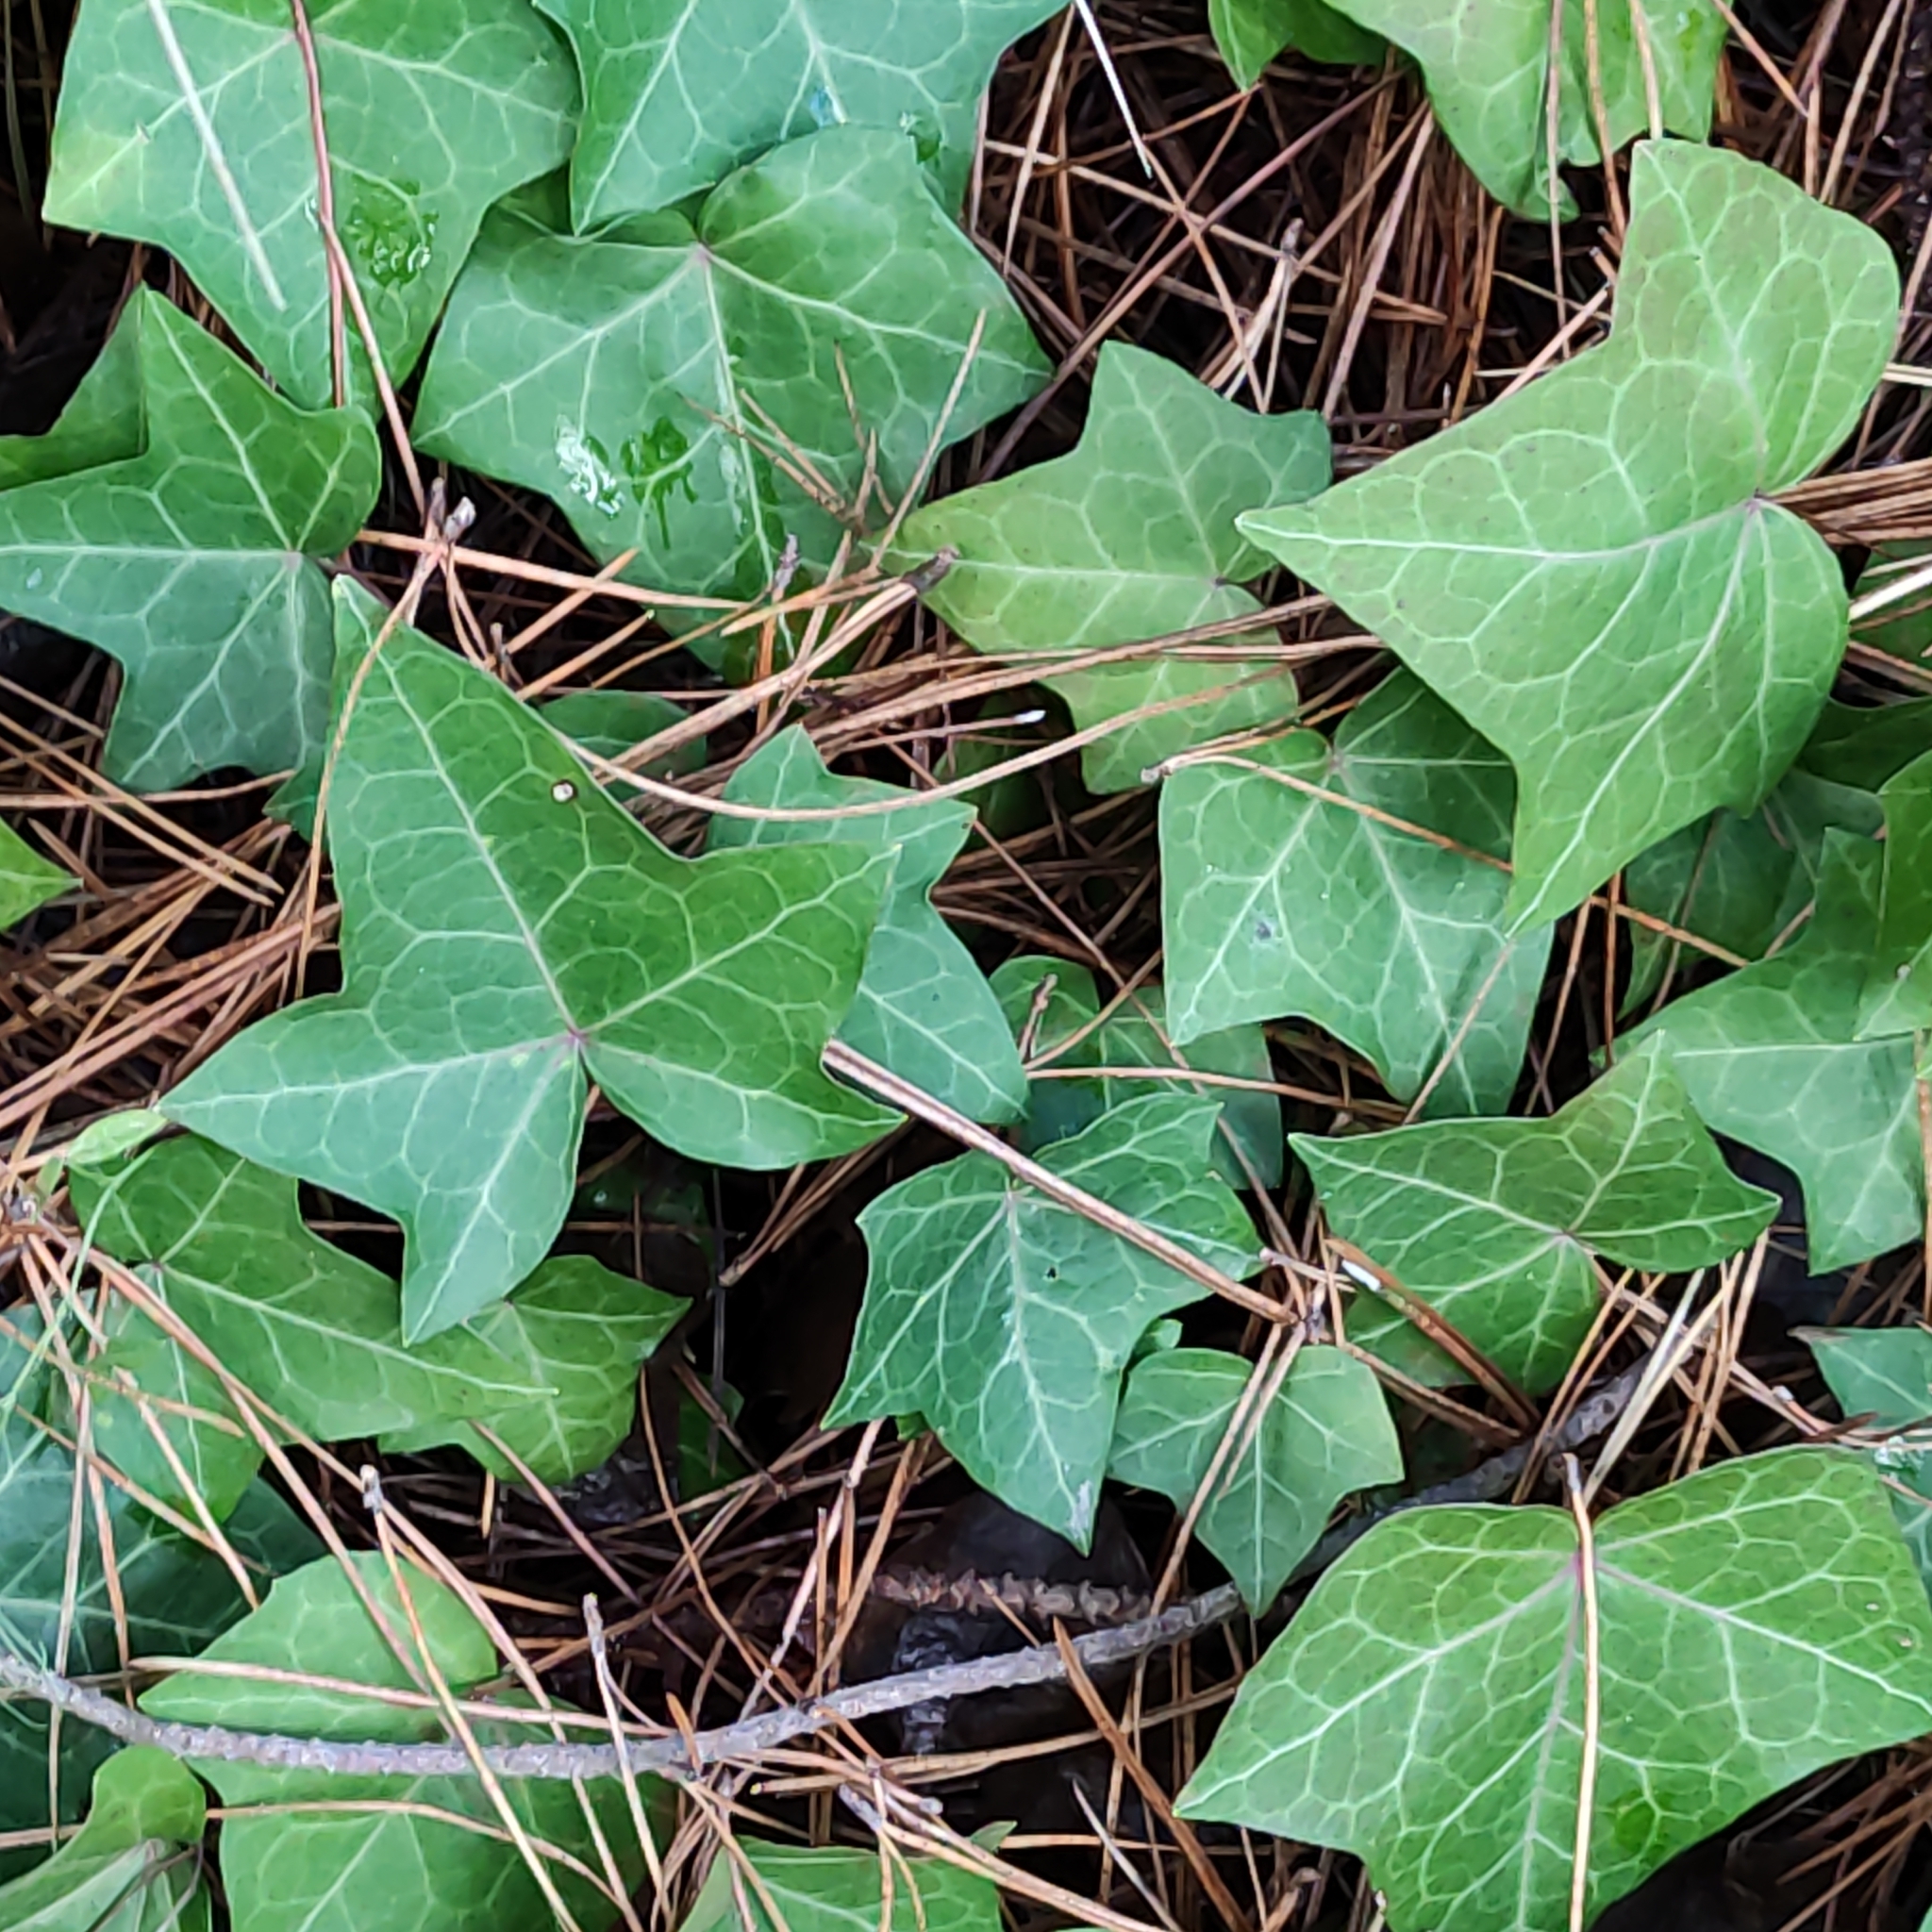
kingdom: Plantae
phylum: Tracheophyta
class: Magnoliopsida
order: Apiales
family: Araliaceae
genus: Hedera
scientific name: Hedera helix
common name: Ivy
